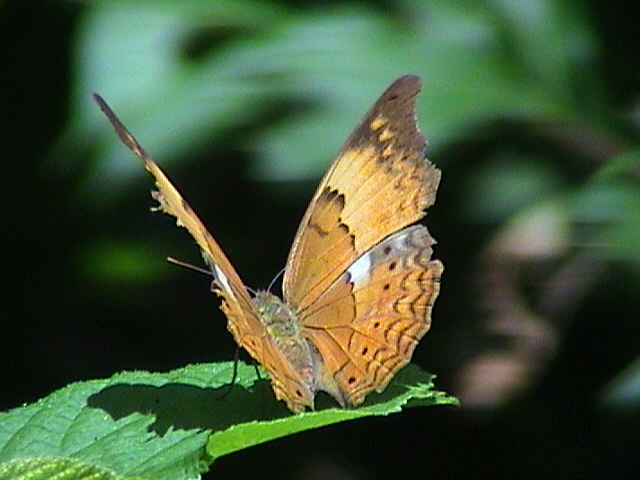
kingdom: Animalia
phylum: Arthropoda
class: Insecta
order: Lepidoptera
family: Nymphalidae
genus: Cirrochroa
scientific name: Cirrochroa thais
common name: Tamil yeoman
